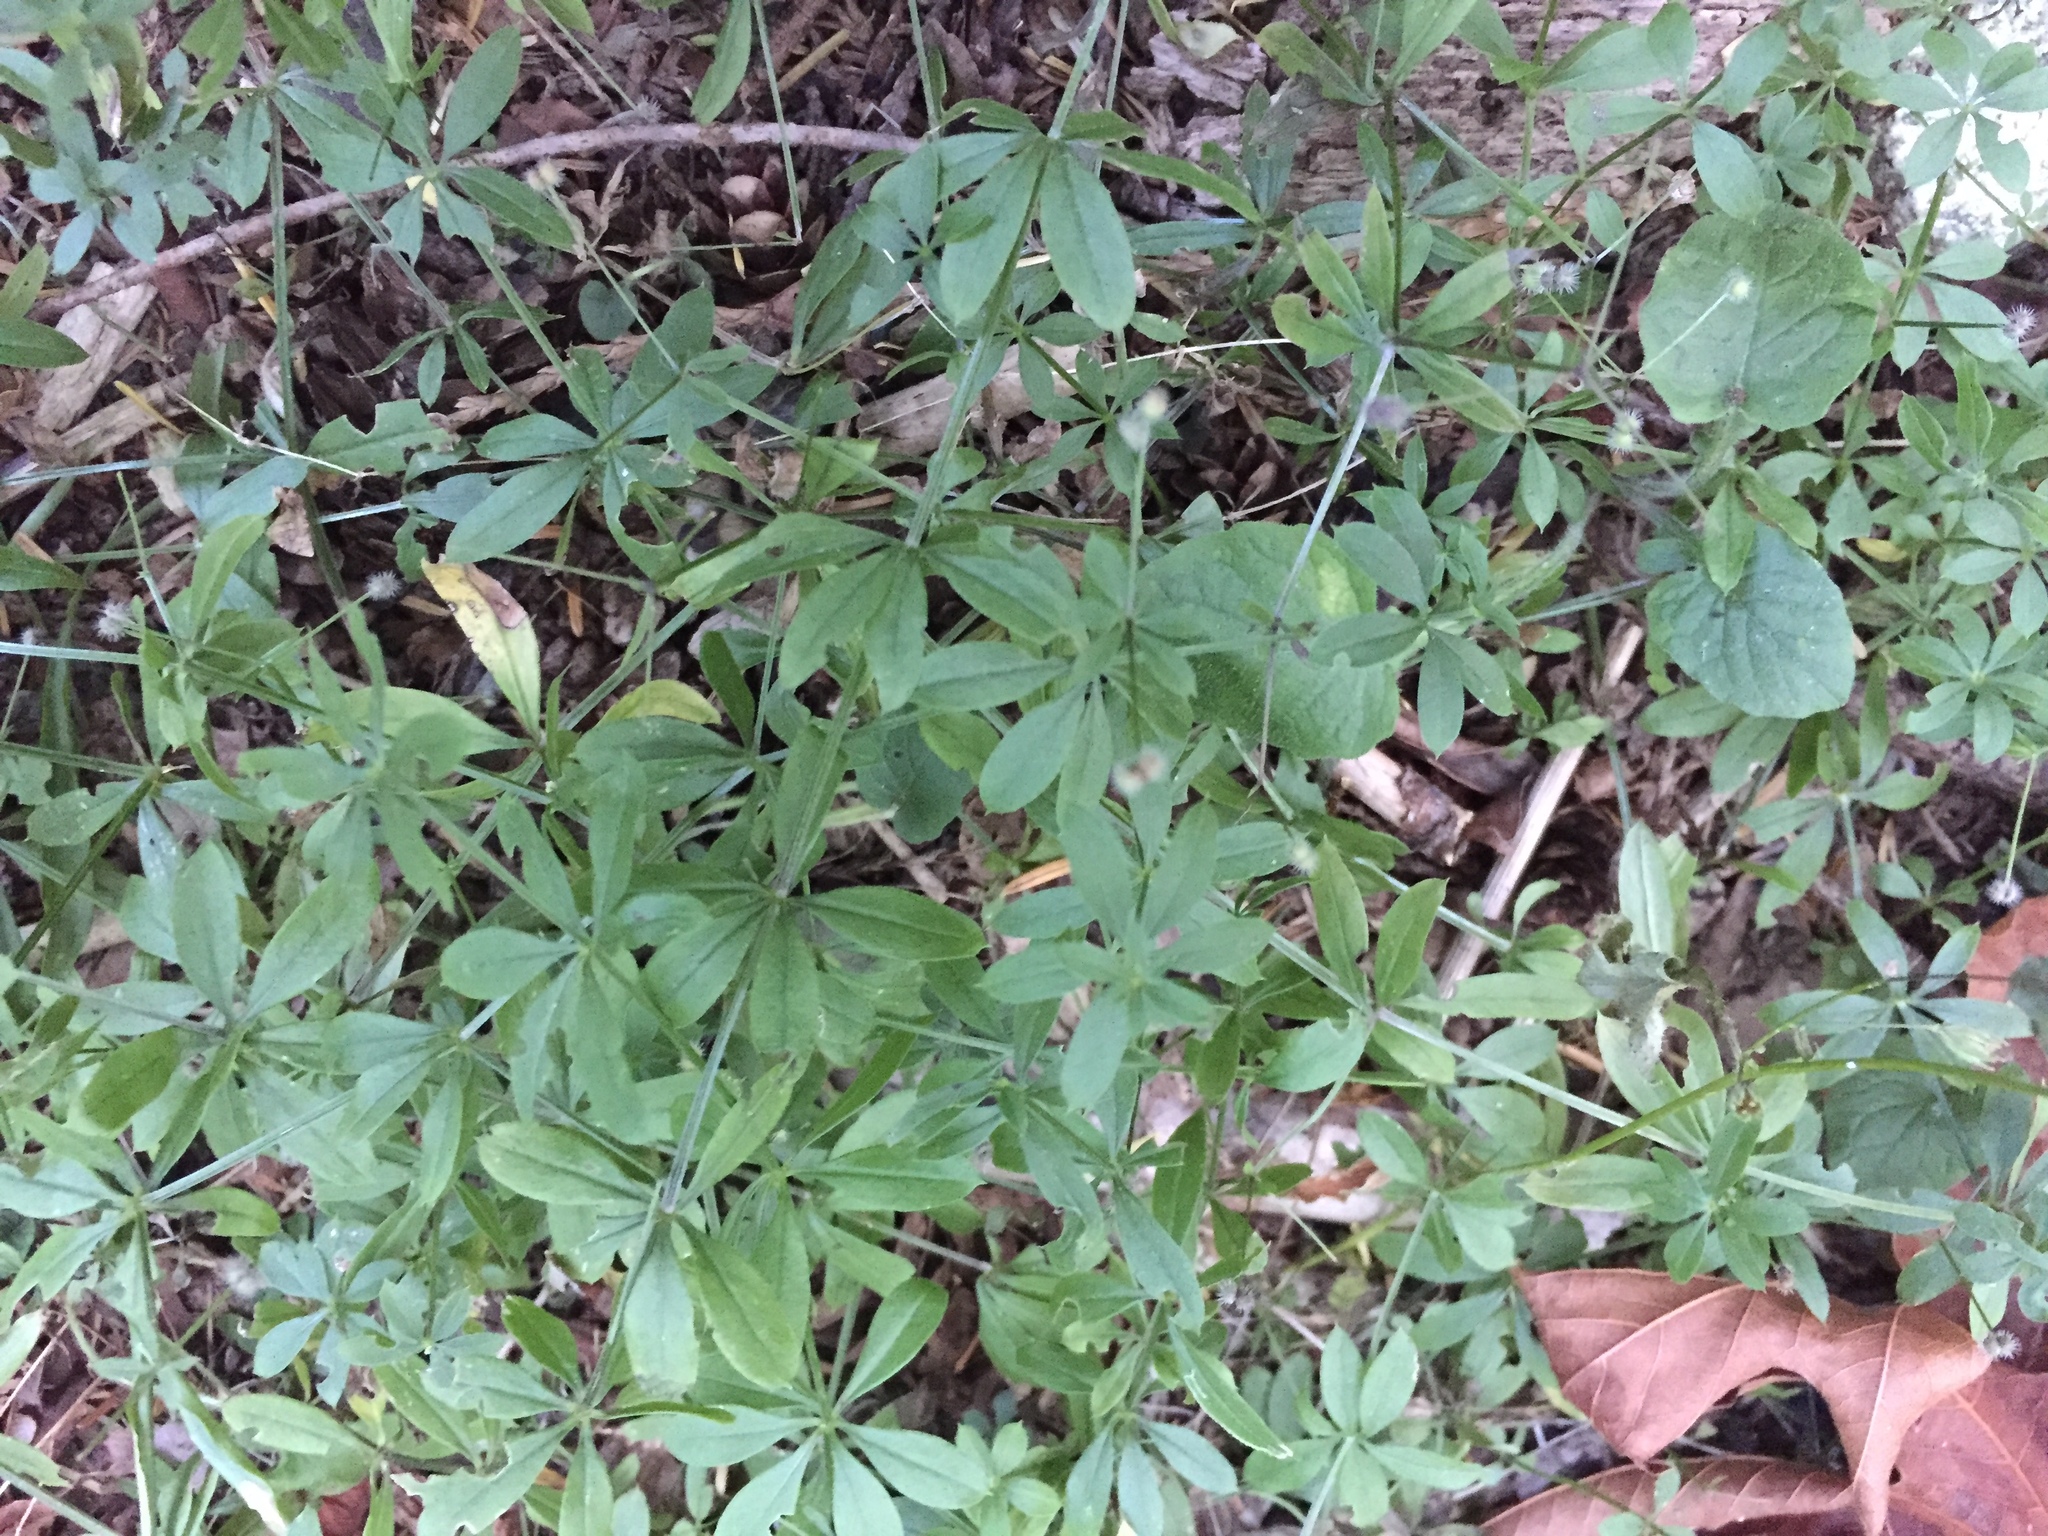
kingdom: Plantae
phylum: Tracheophyta
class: Magnoliopsida
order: Gentianales
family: Rubiaceae
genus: Galium
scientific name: Galium triflorum
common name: Fragrant bedstraw
